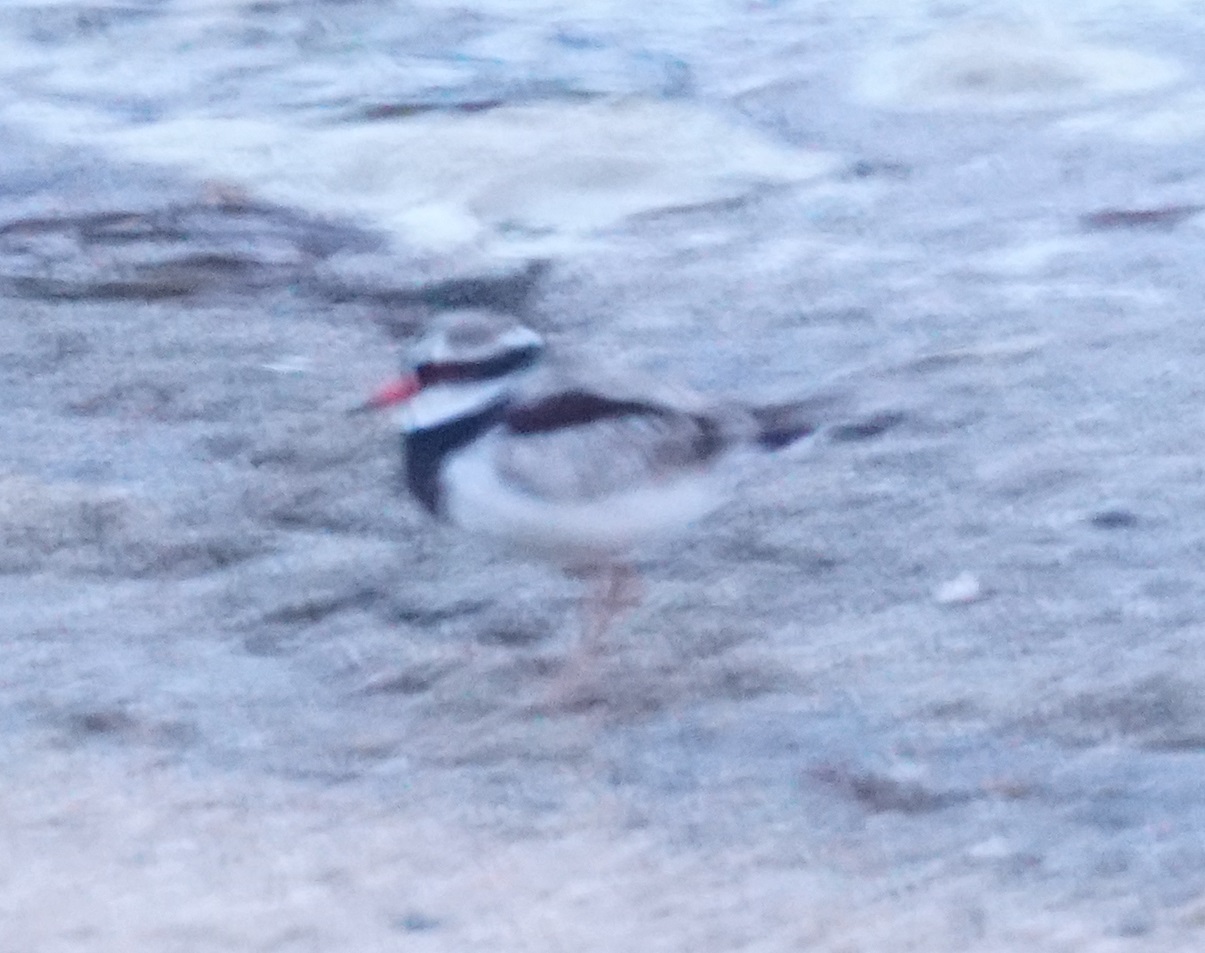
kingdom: Animalia
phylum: Chordata
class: Aves
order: Charadriiformes
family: Charadriidae
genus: Elseyornis
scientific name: Elseyornis melanops
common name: Black-fronted dotterel
